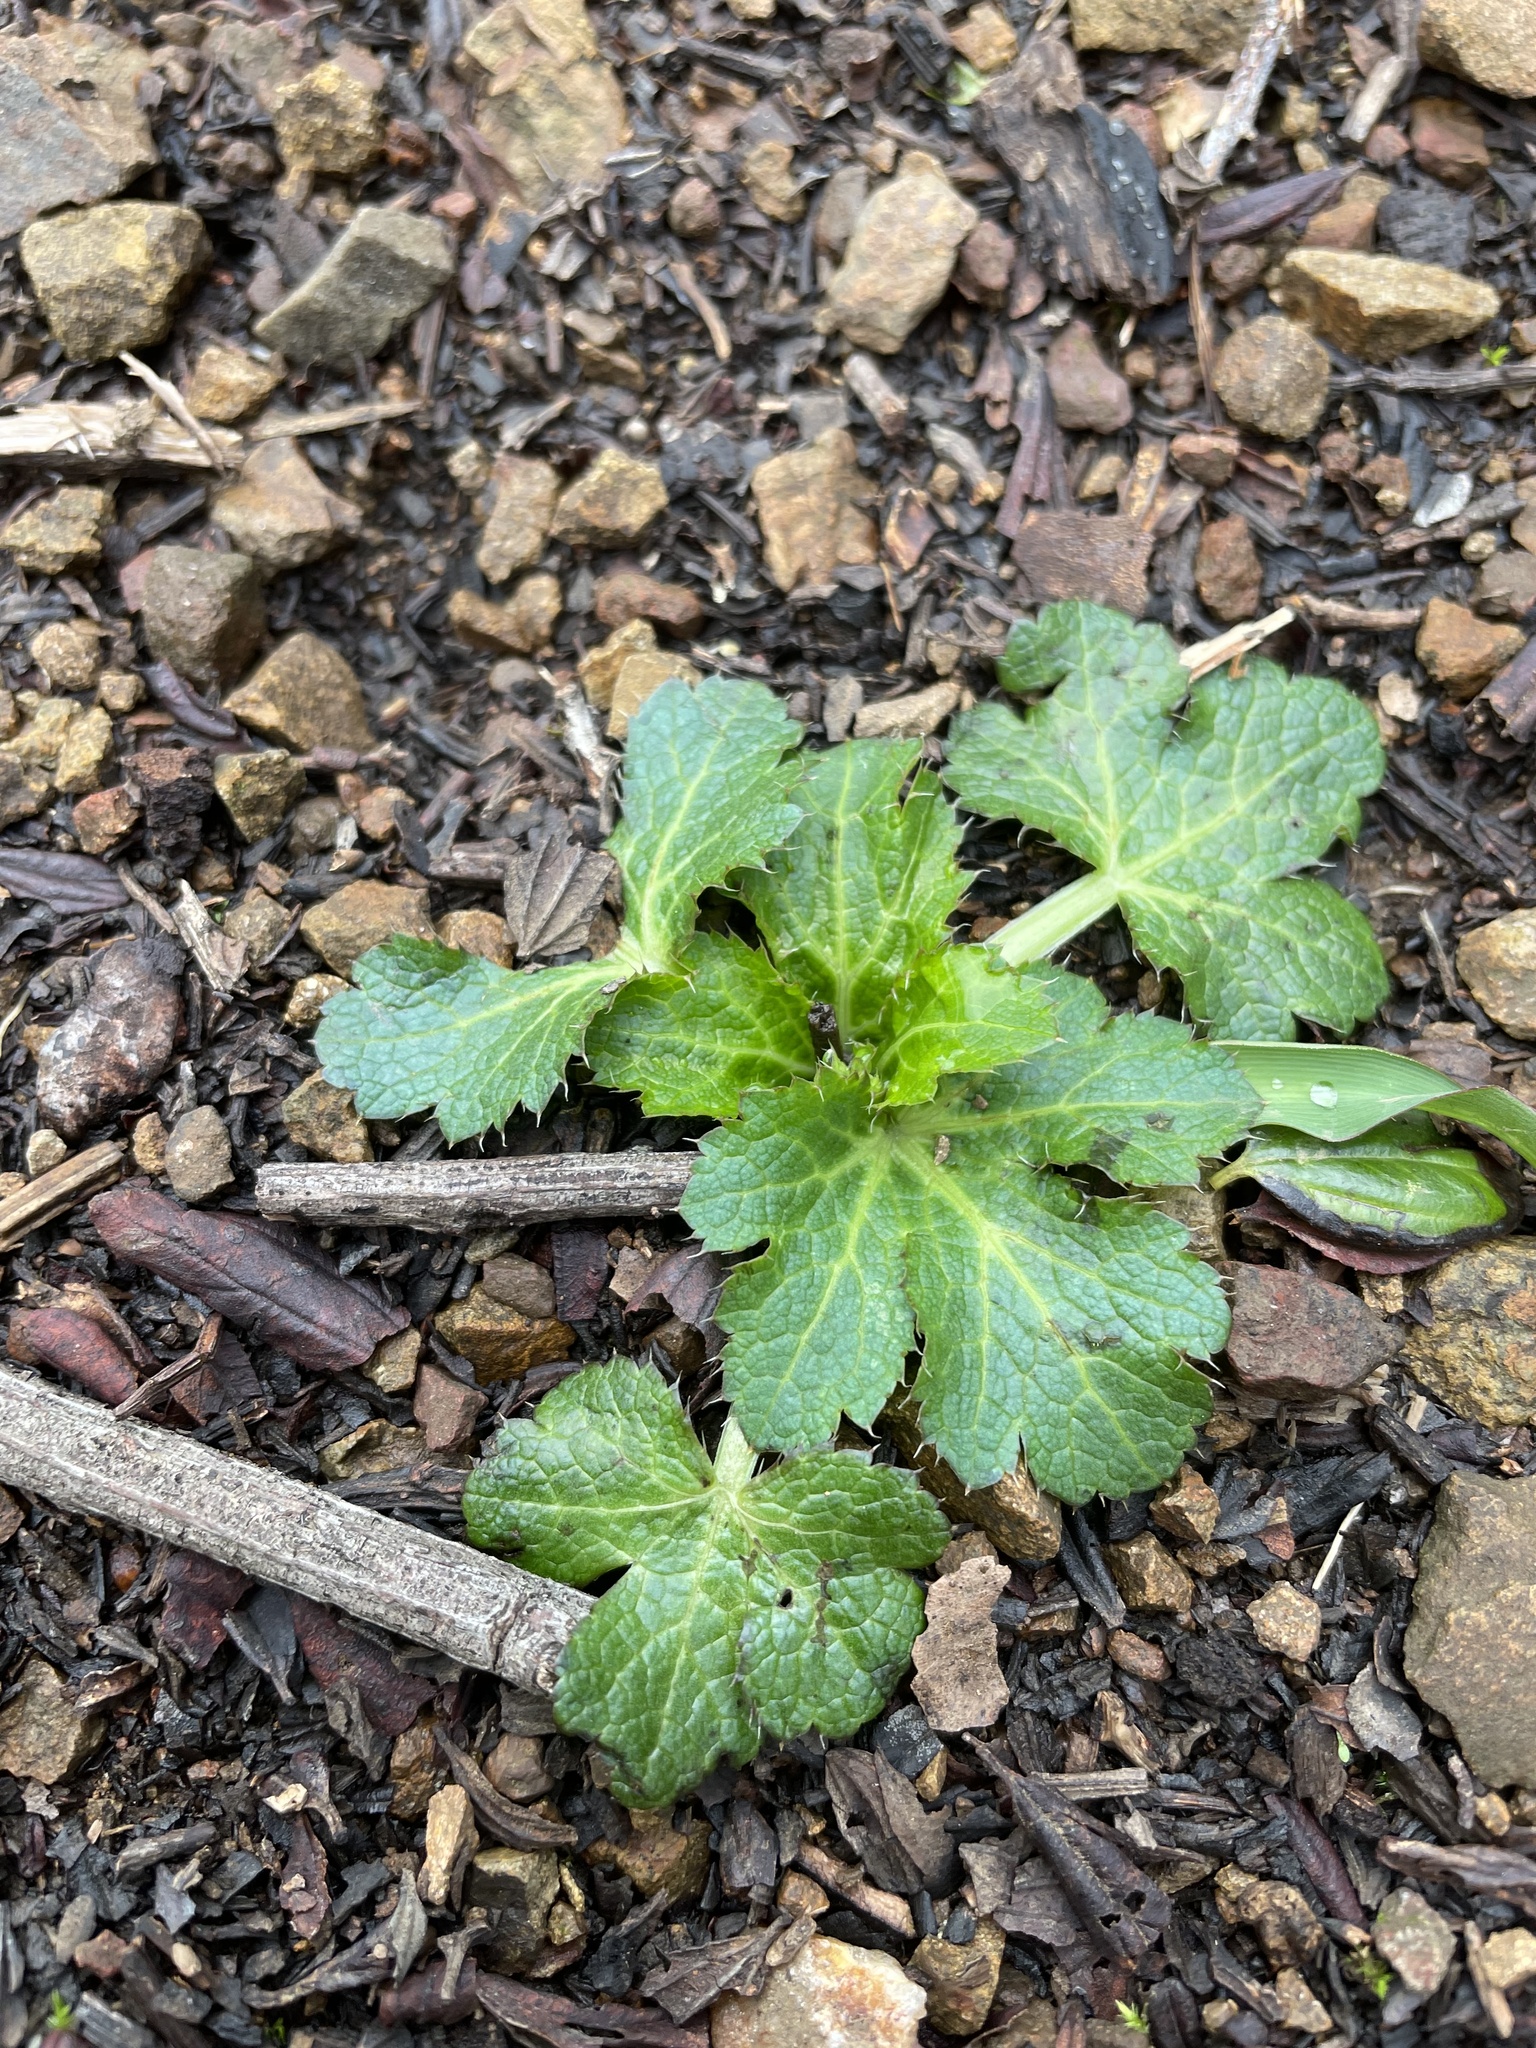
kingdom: Plantae
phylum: Tracheophyta
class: Magnoliopsida
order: Apiales
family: Apiaceae
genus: Sanicula
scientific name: Sanicula crassicaulis
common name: Western snakeroot
